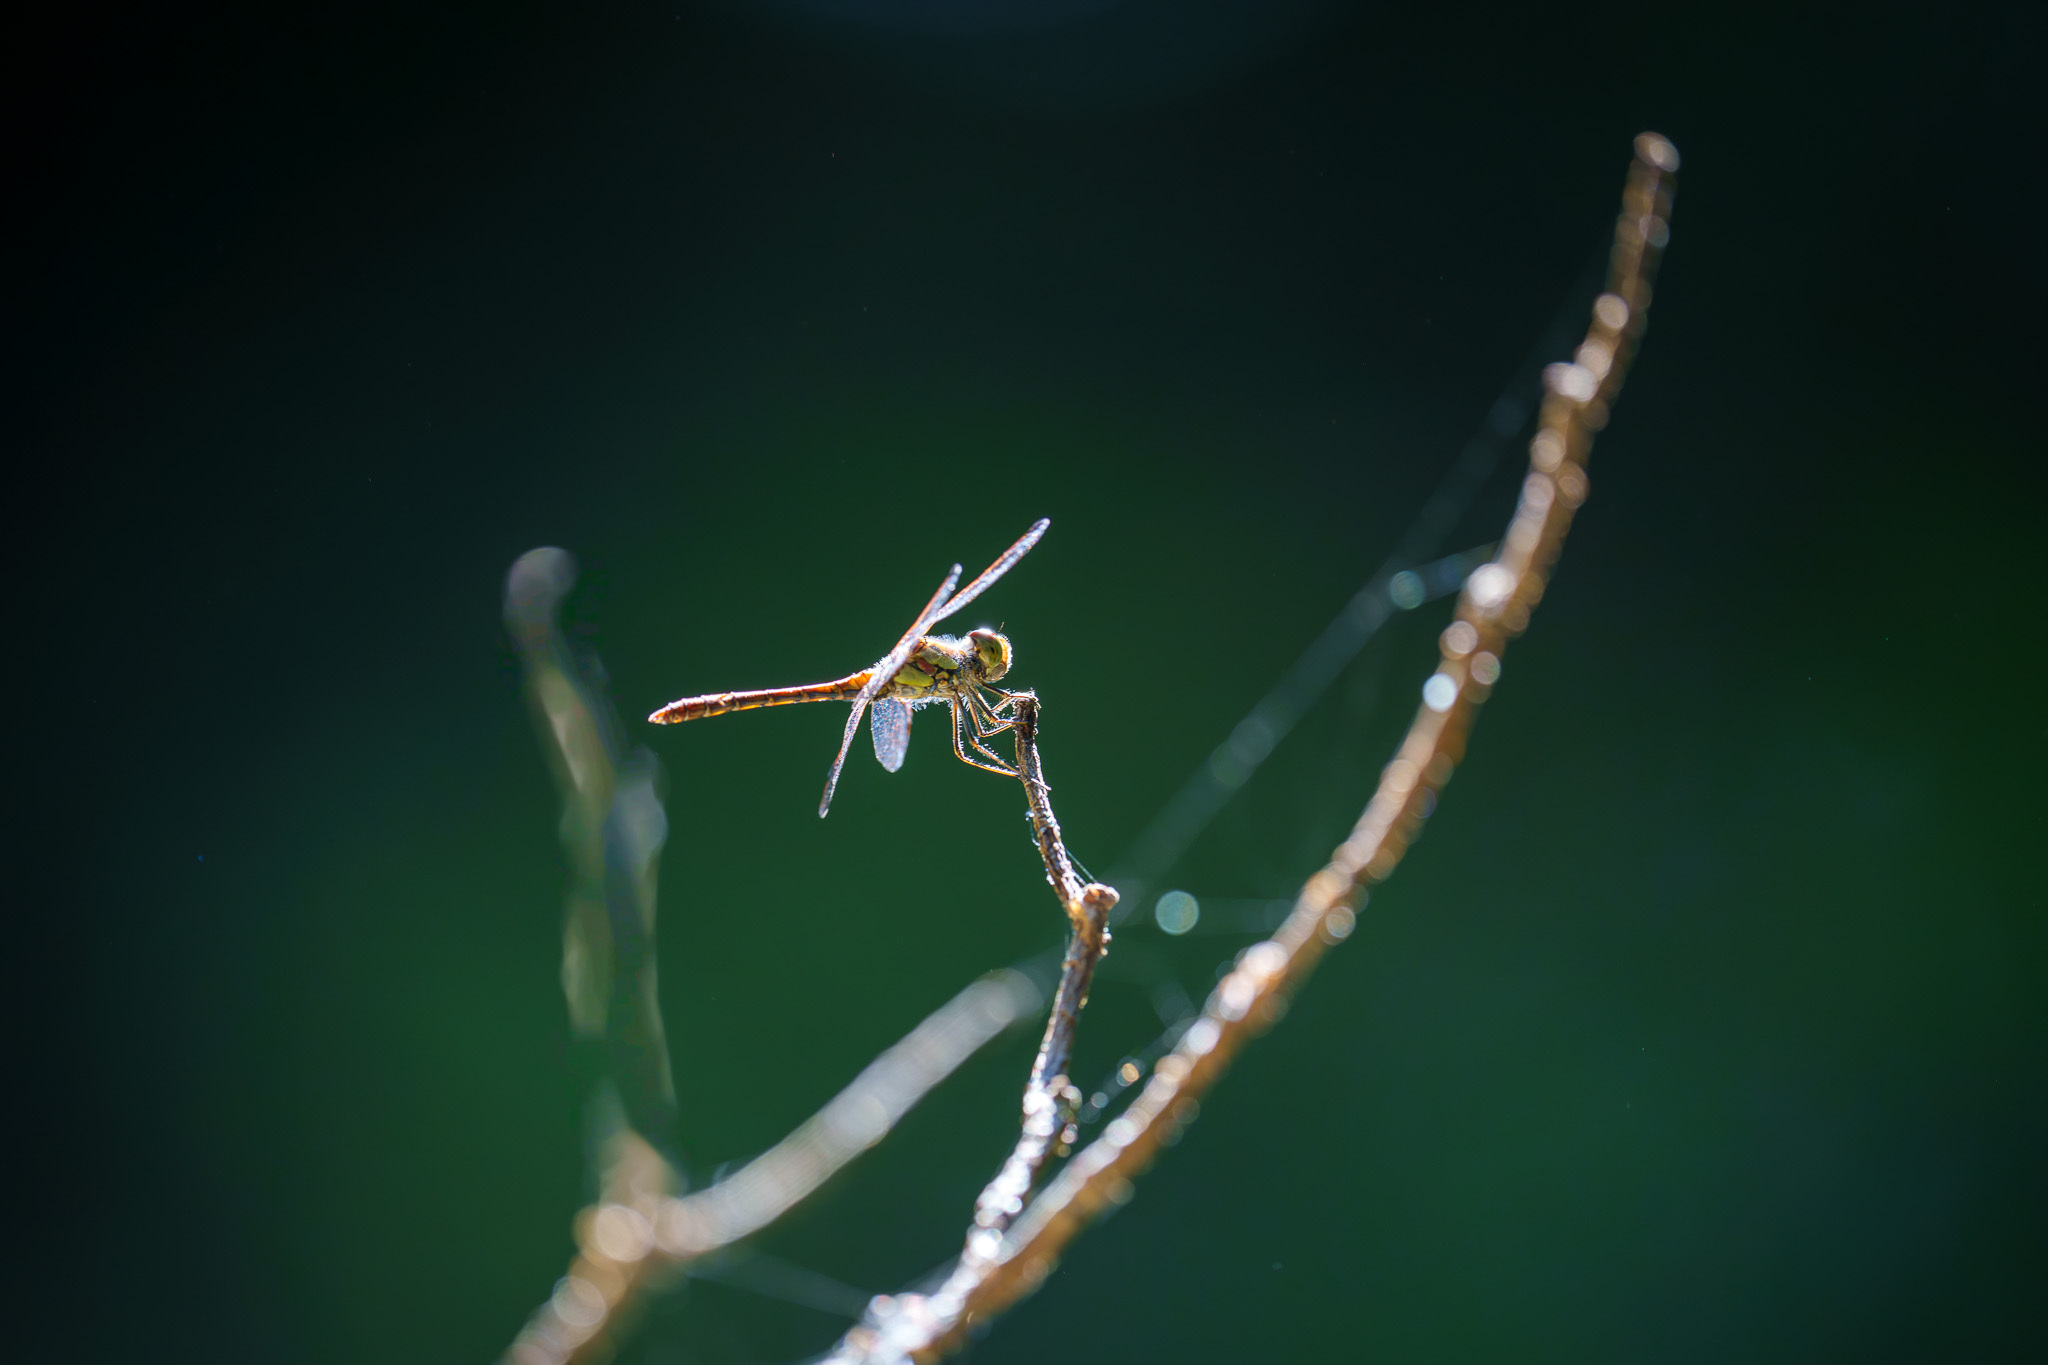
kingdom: Animalia
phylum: Arthropoda
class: Insecta
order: Odonata
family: Libellulidae
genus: Sympetrum
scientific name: Sympetrum striolatum
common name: Common darter
